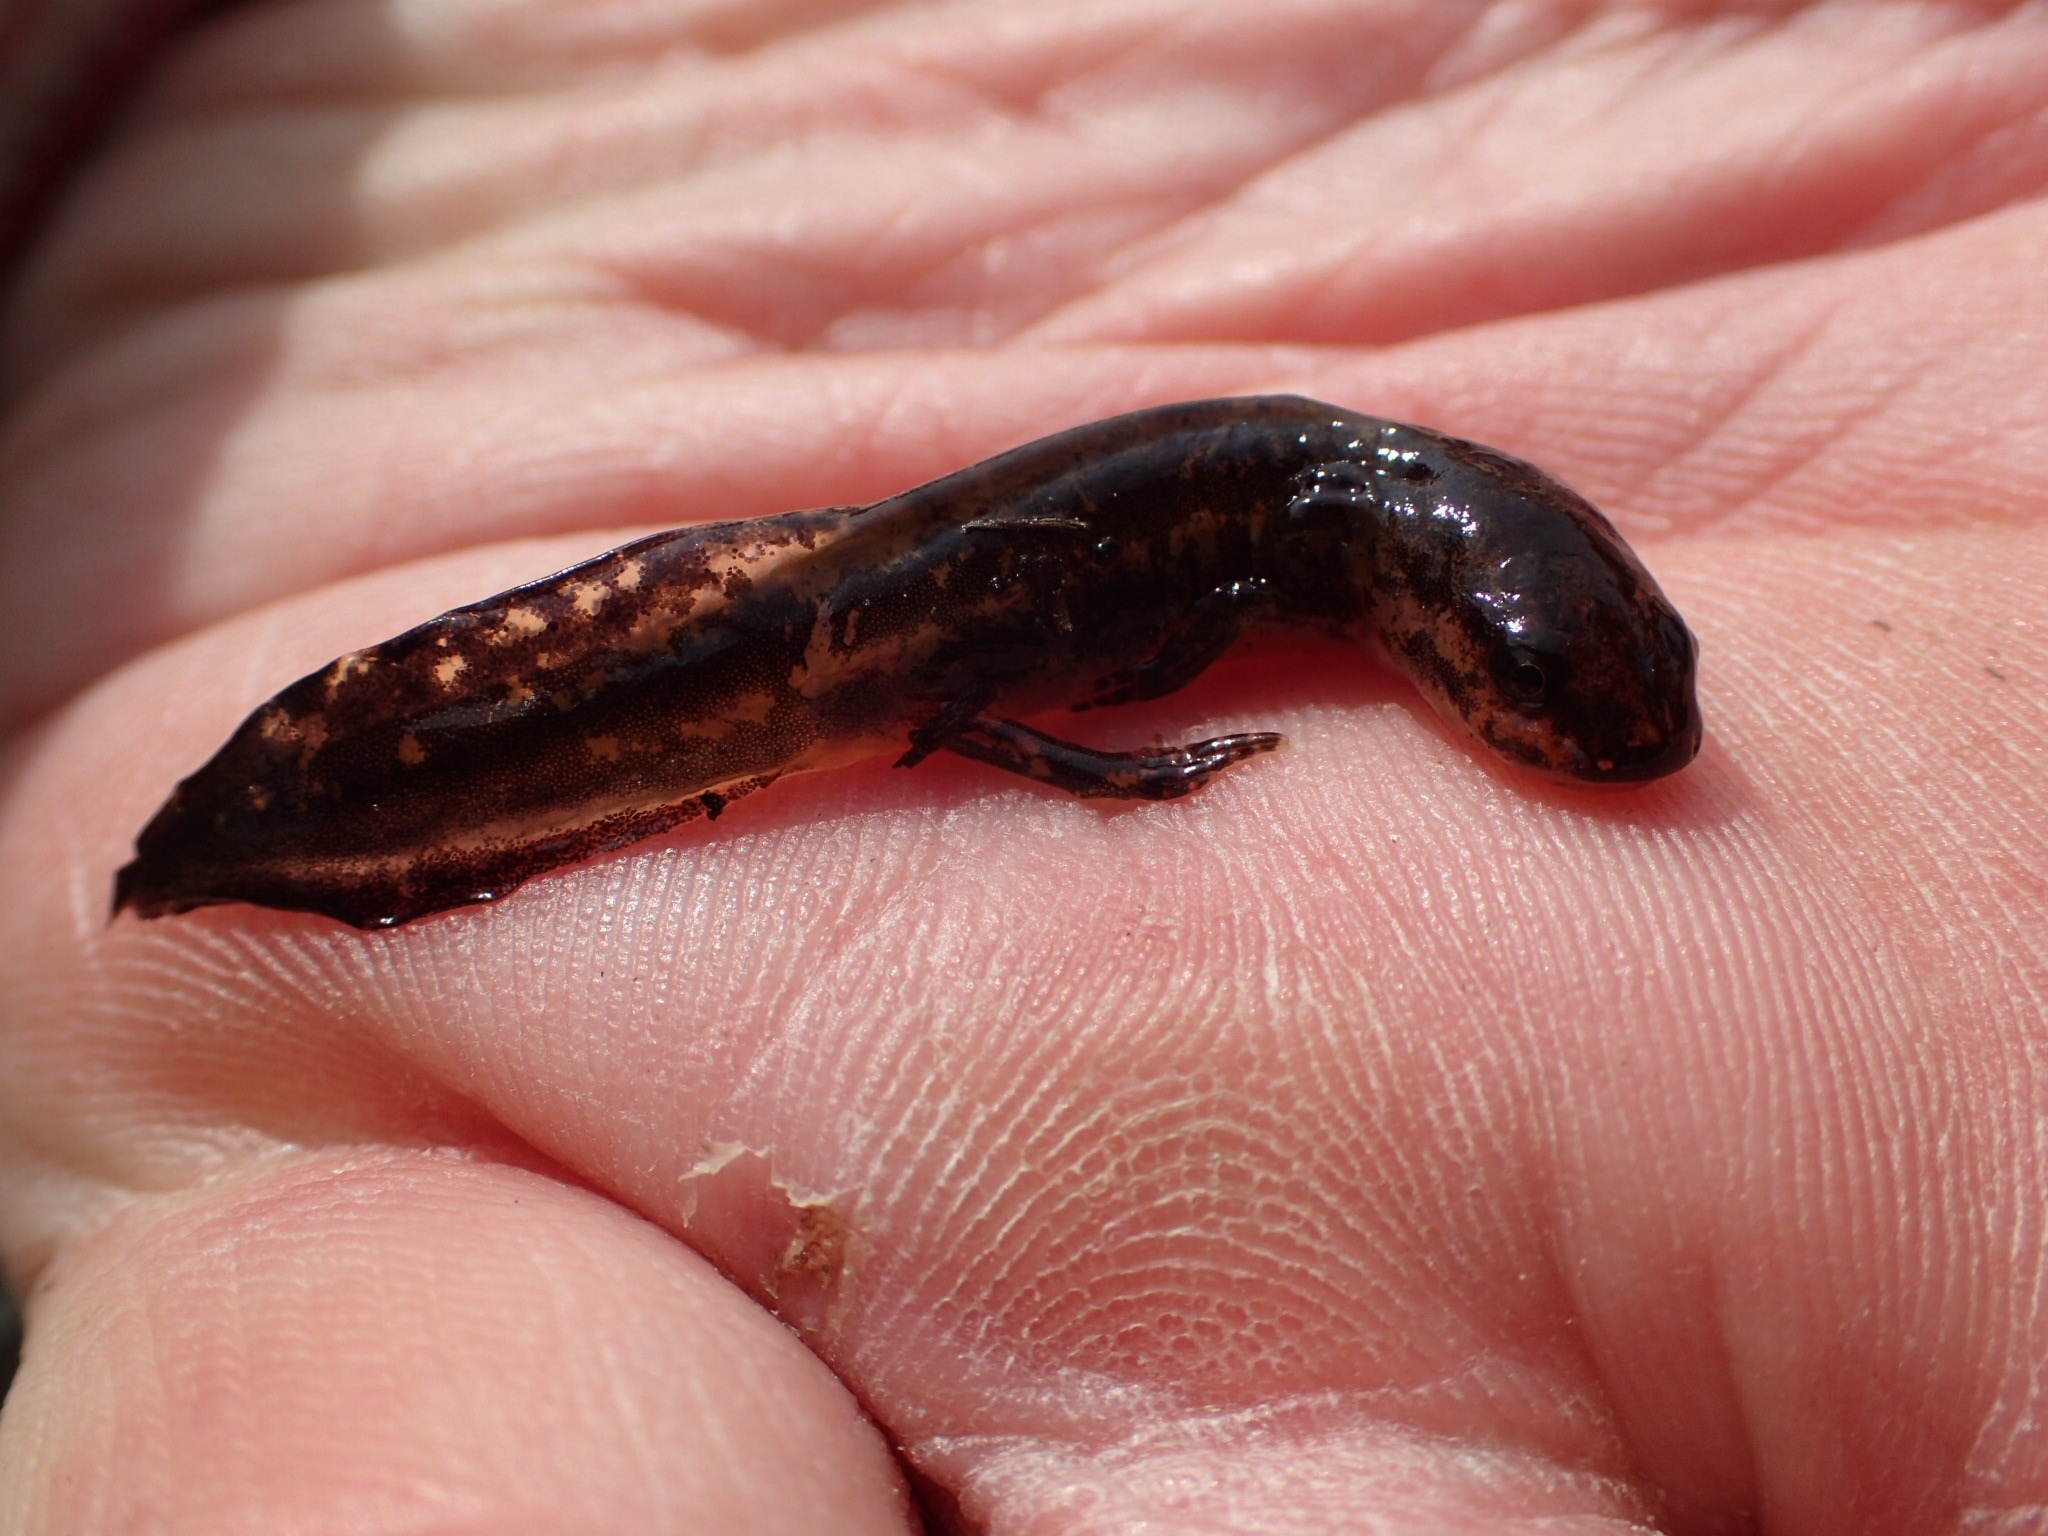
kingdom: Animalia
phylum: Chordata
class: Amphibia
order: Caudata
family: Salamandridae
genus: Notophthalmus
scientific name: Notophthalmus viridescens
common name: Eastern newt
